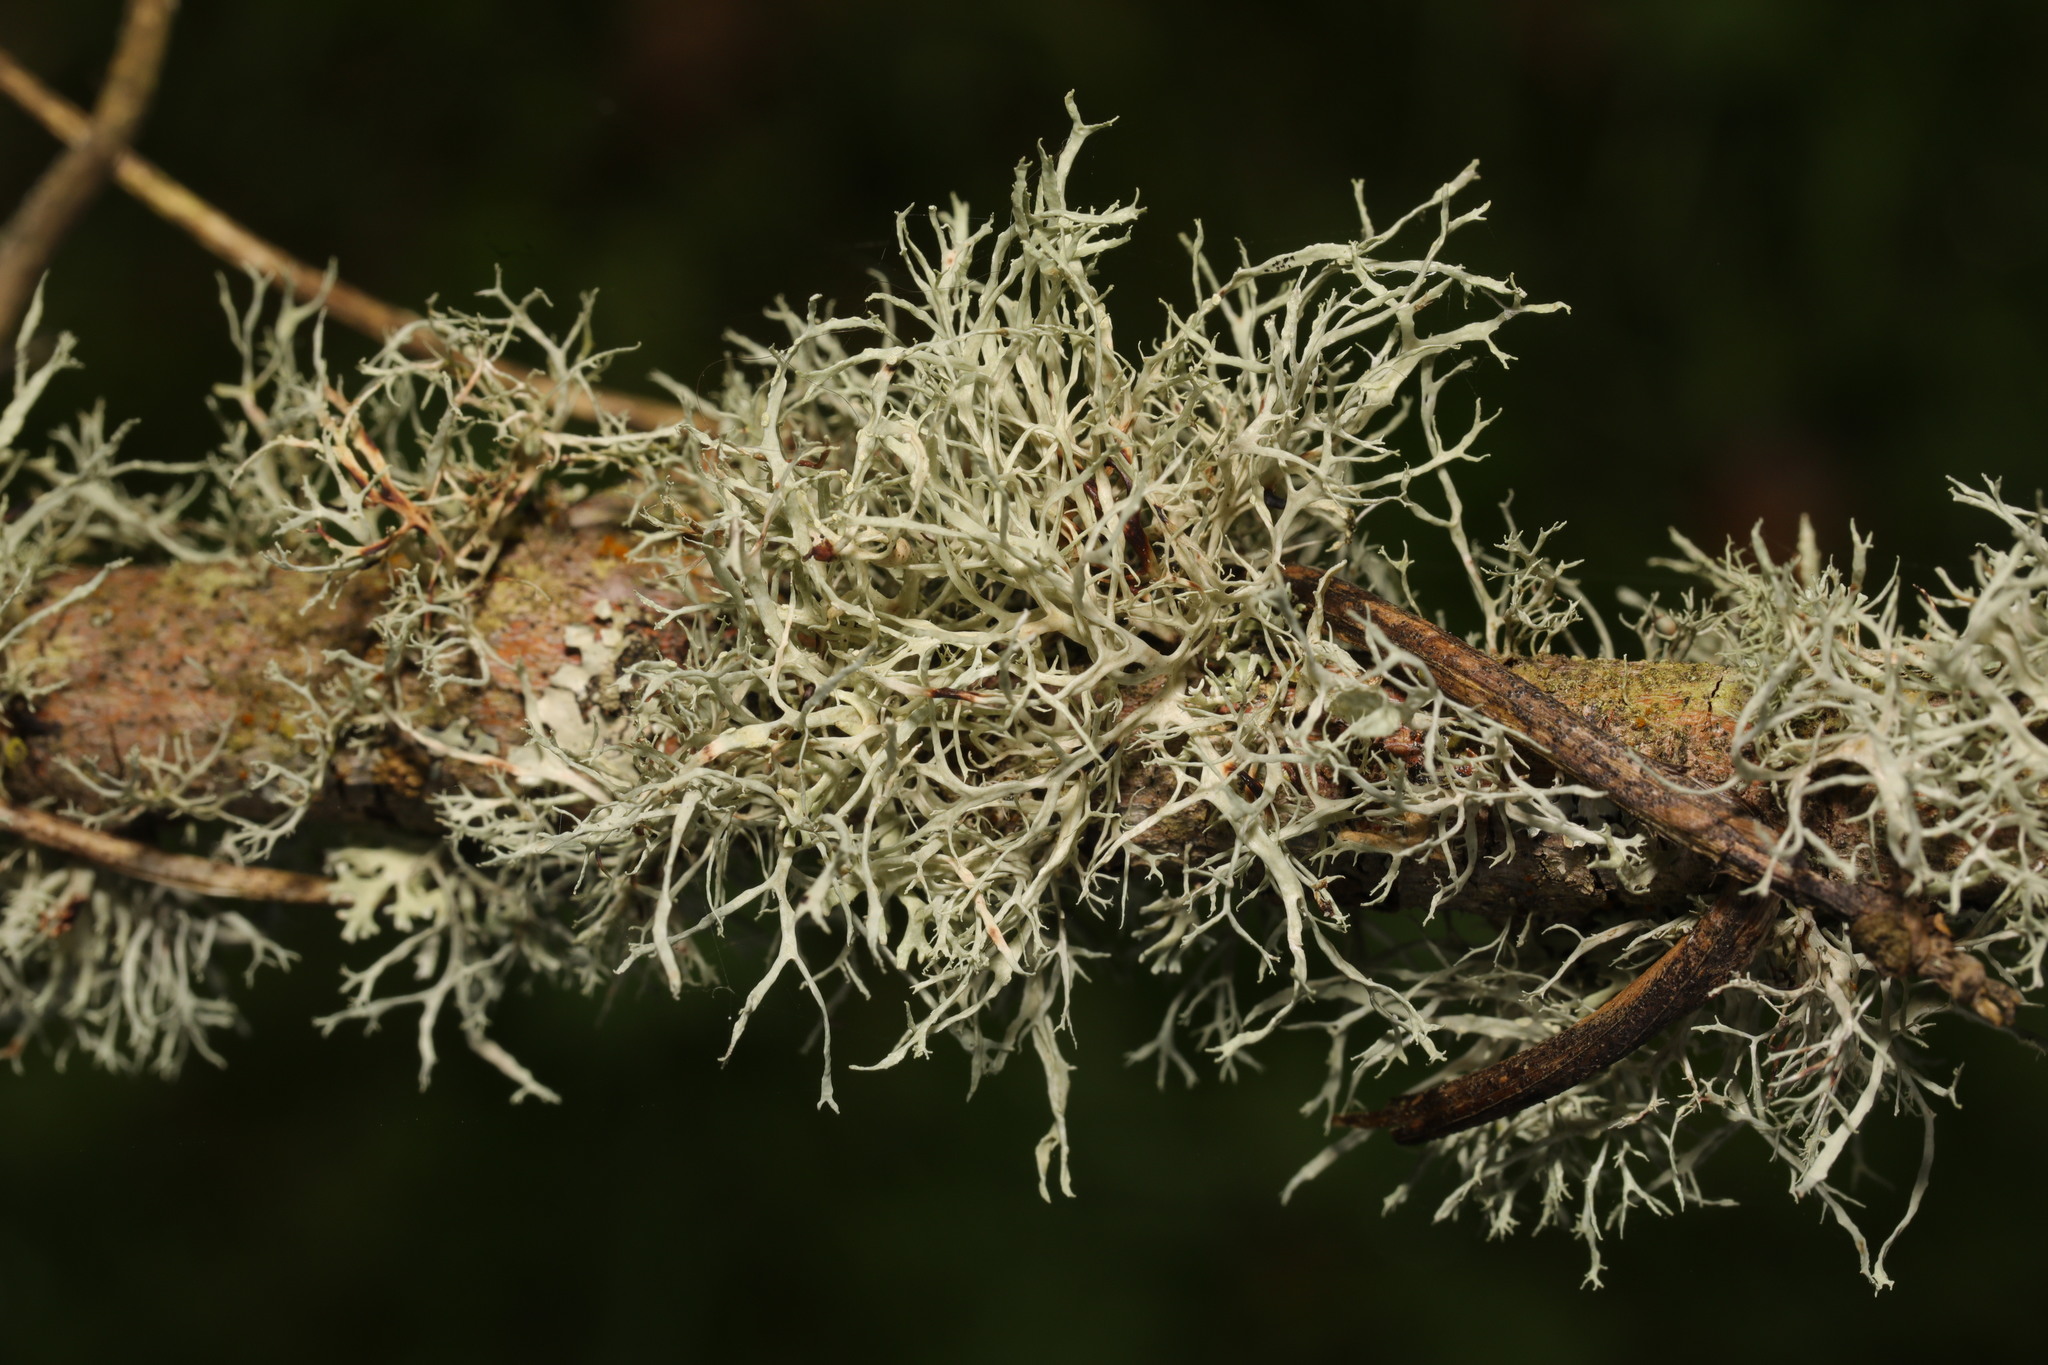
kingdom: Fungi
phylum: Ascomycota
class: Lecanoromycetes
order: Lecanorales
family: Ramalinaceae
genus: Ramalina
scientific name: Ramalina farinacea
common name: Farinose cartilage lichen
